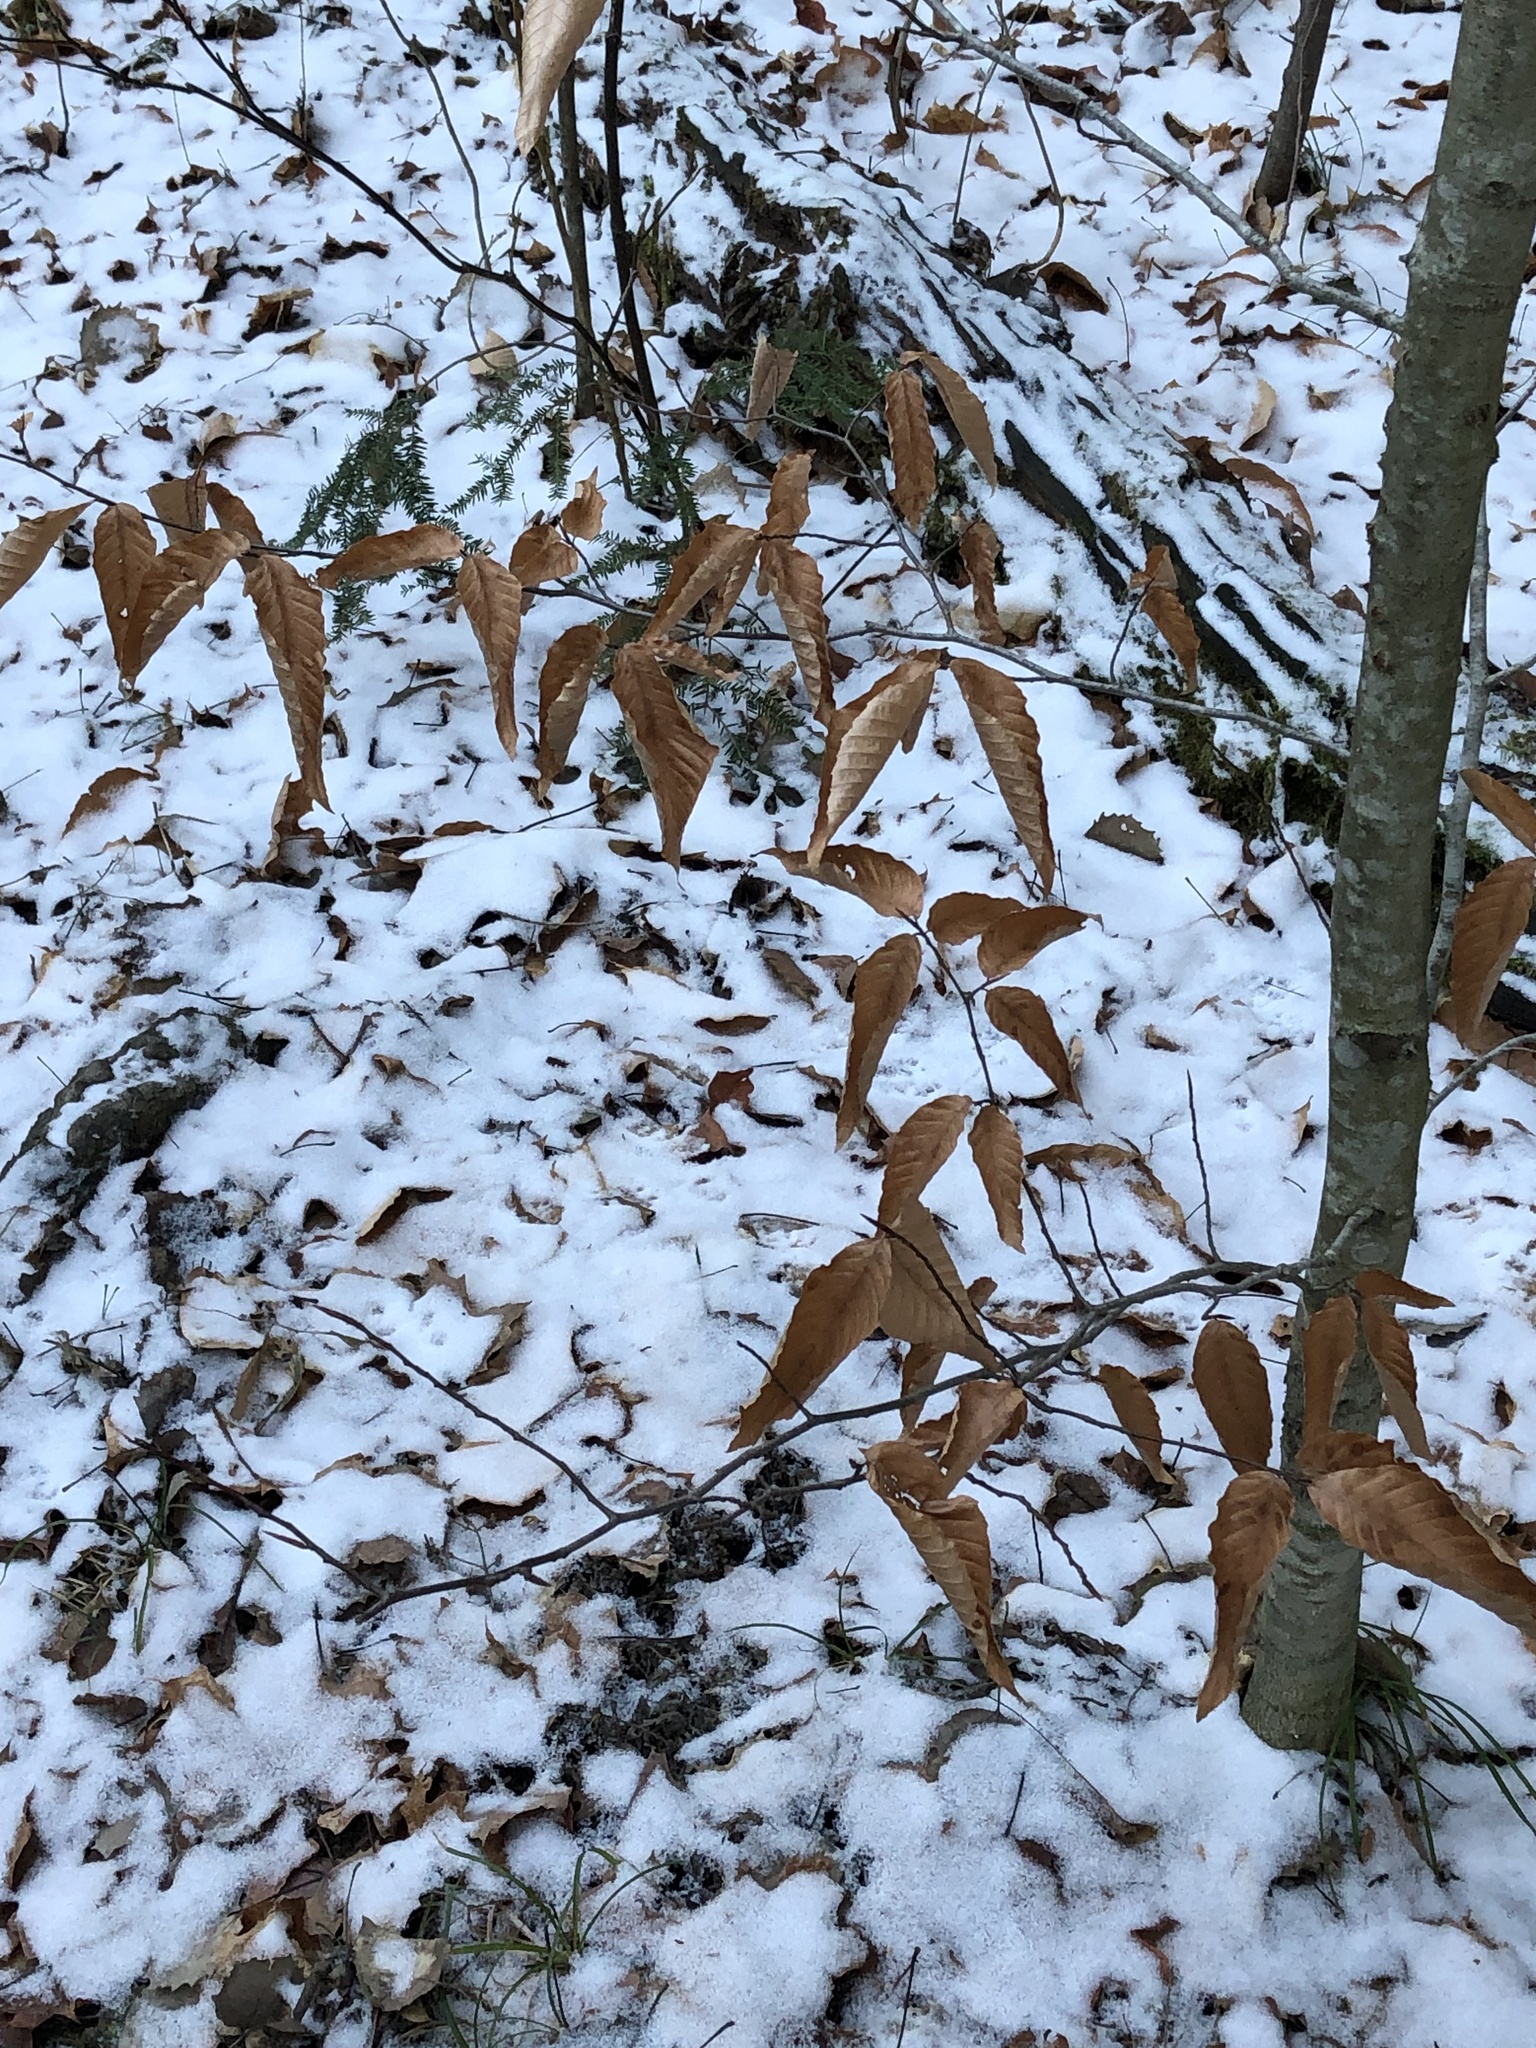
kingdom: Plantae
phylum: Tracheophyta
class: Magnoliopsida
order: Fagales
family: Fagaceae
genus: Fagus
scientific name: Fagus grandifolia
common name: American beech
